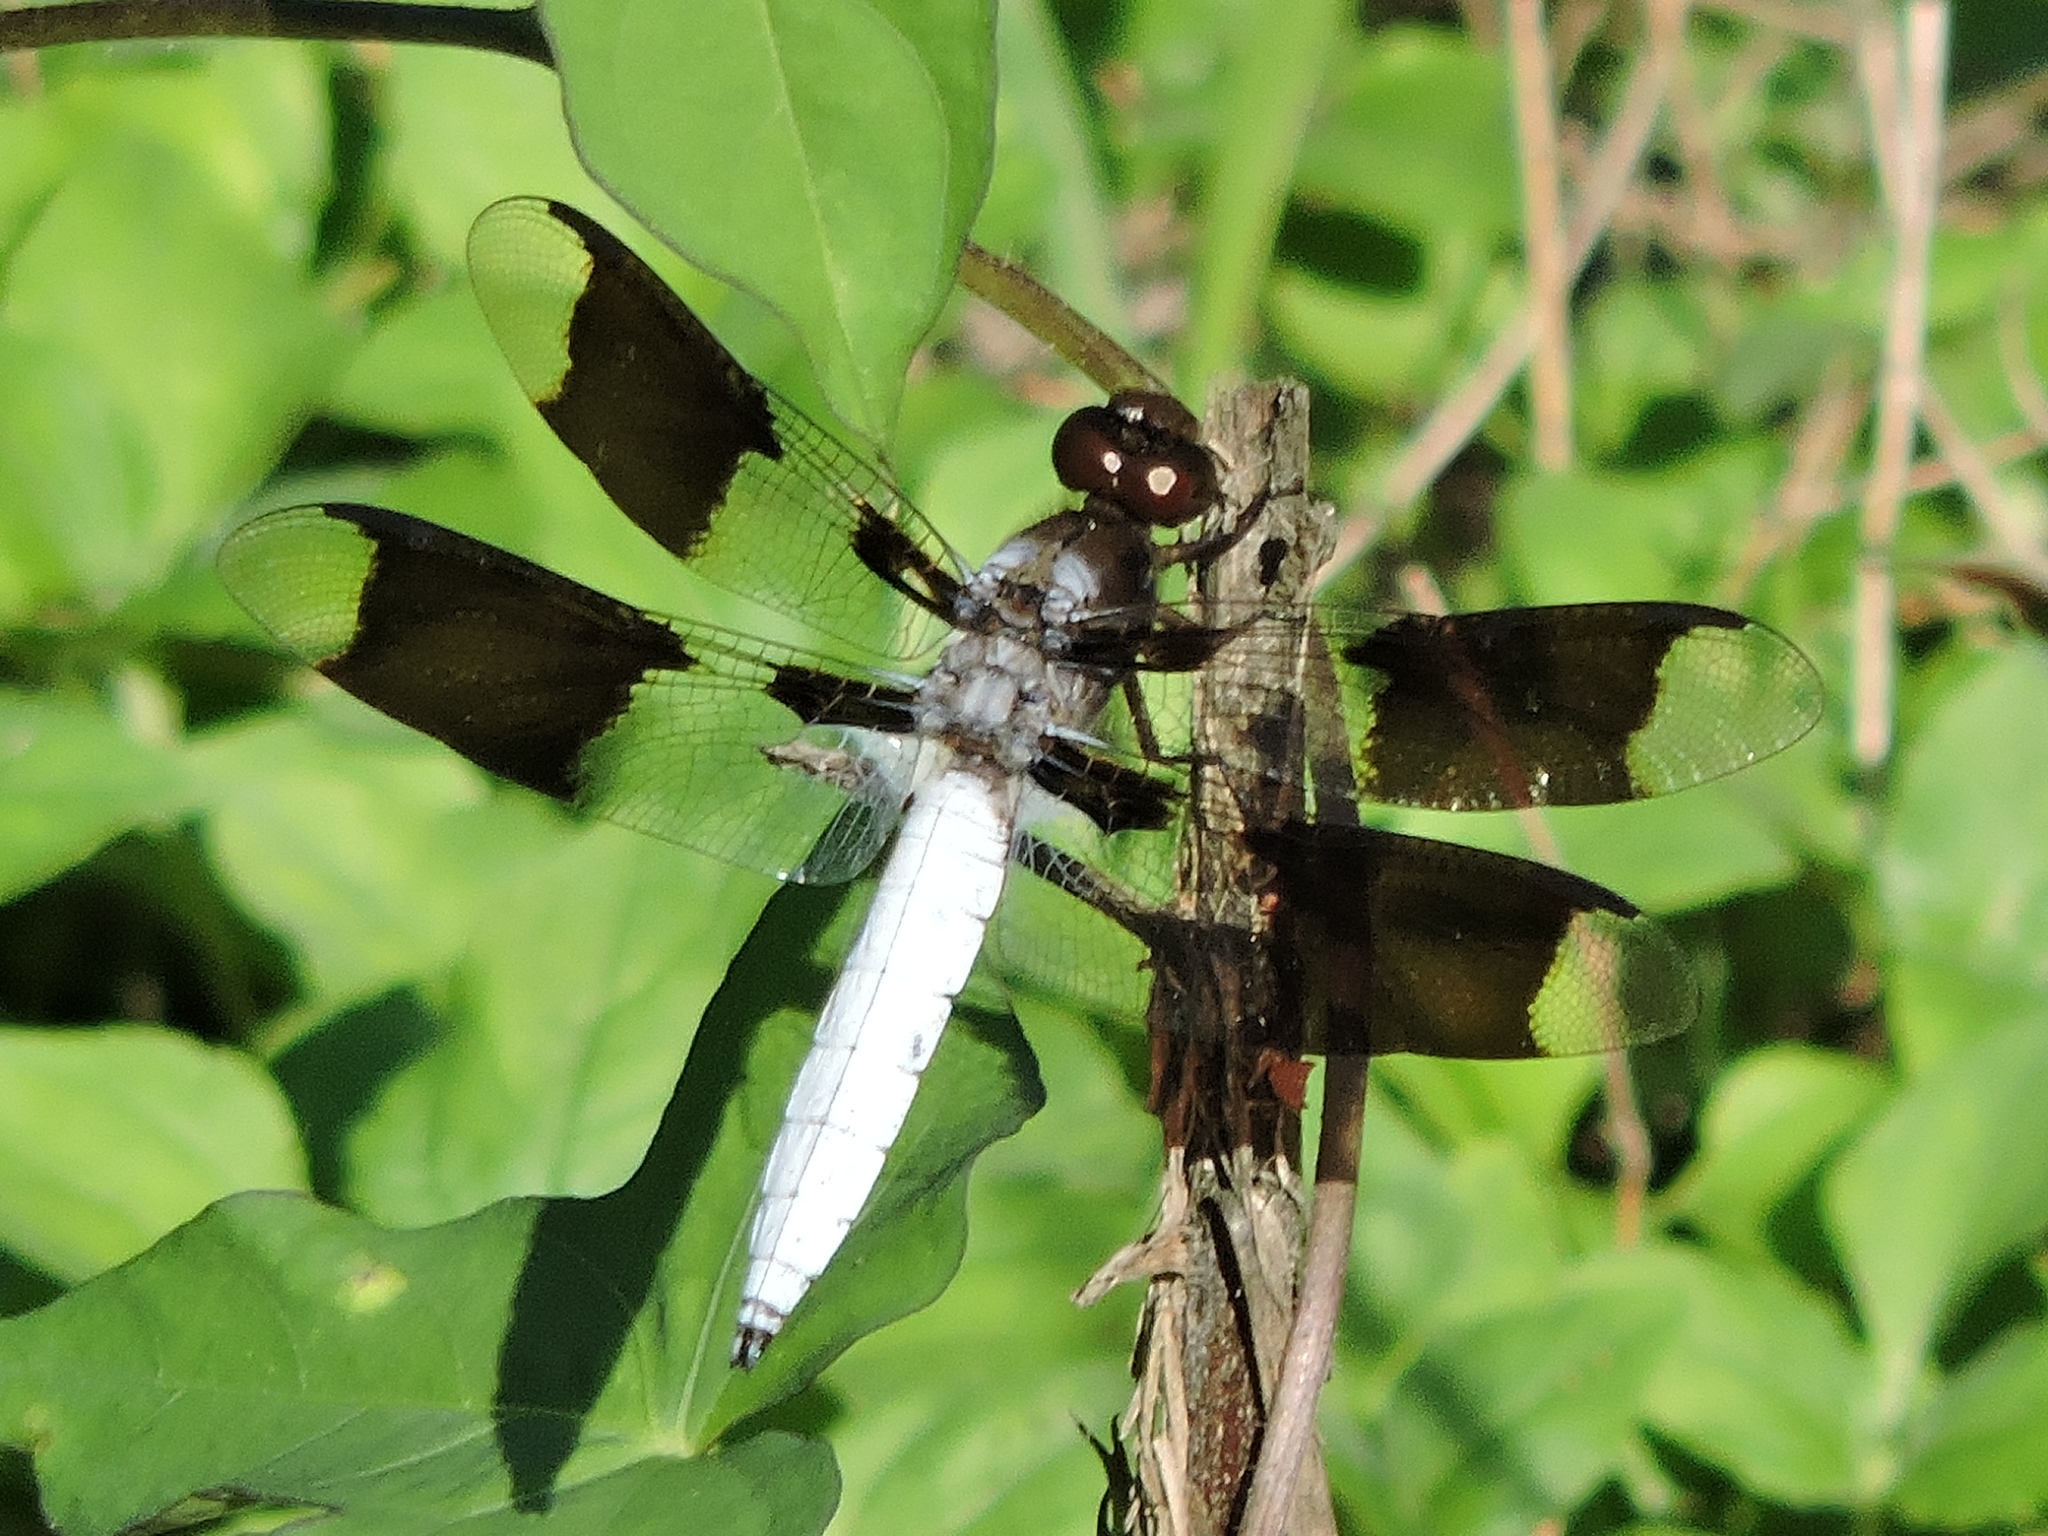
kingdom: Animalia
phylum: Arthropoda
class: Insecta
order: Odonata
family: Libellulidae
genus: Plathemis
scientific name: Plathemis lydia
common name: Common whitetail
